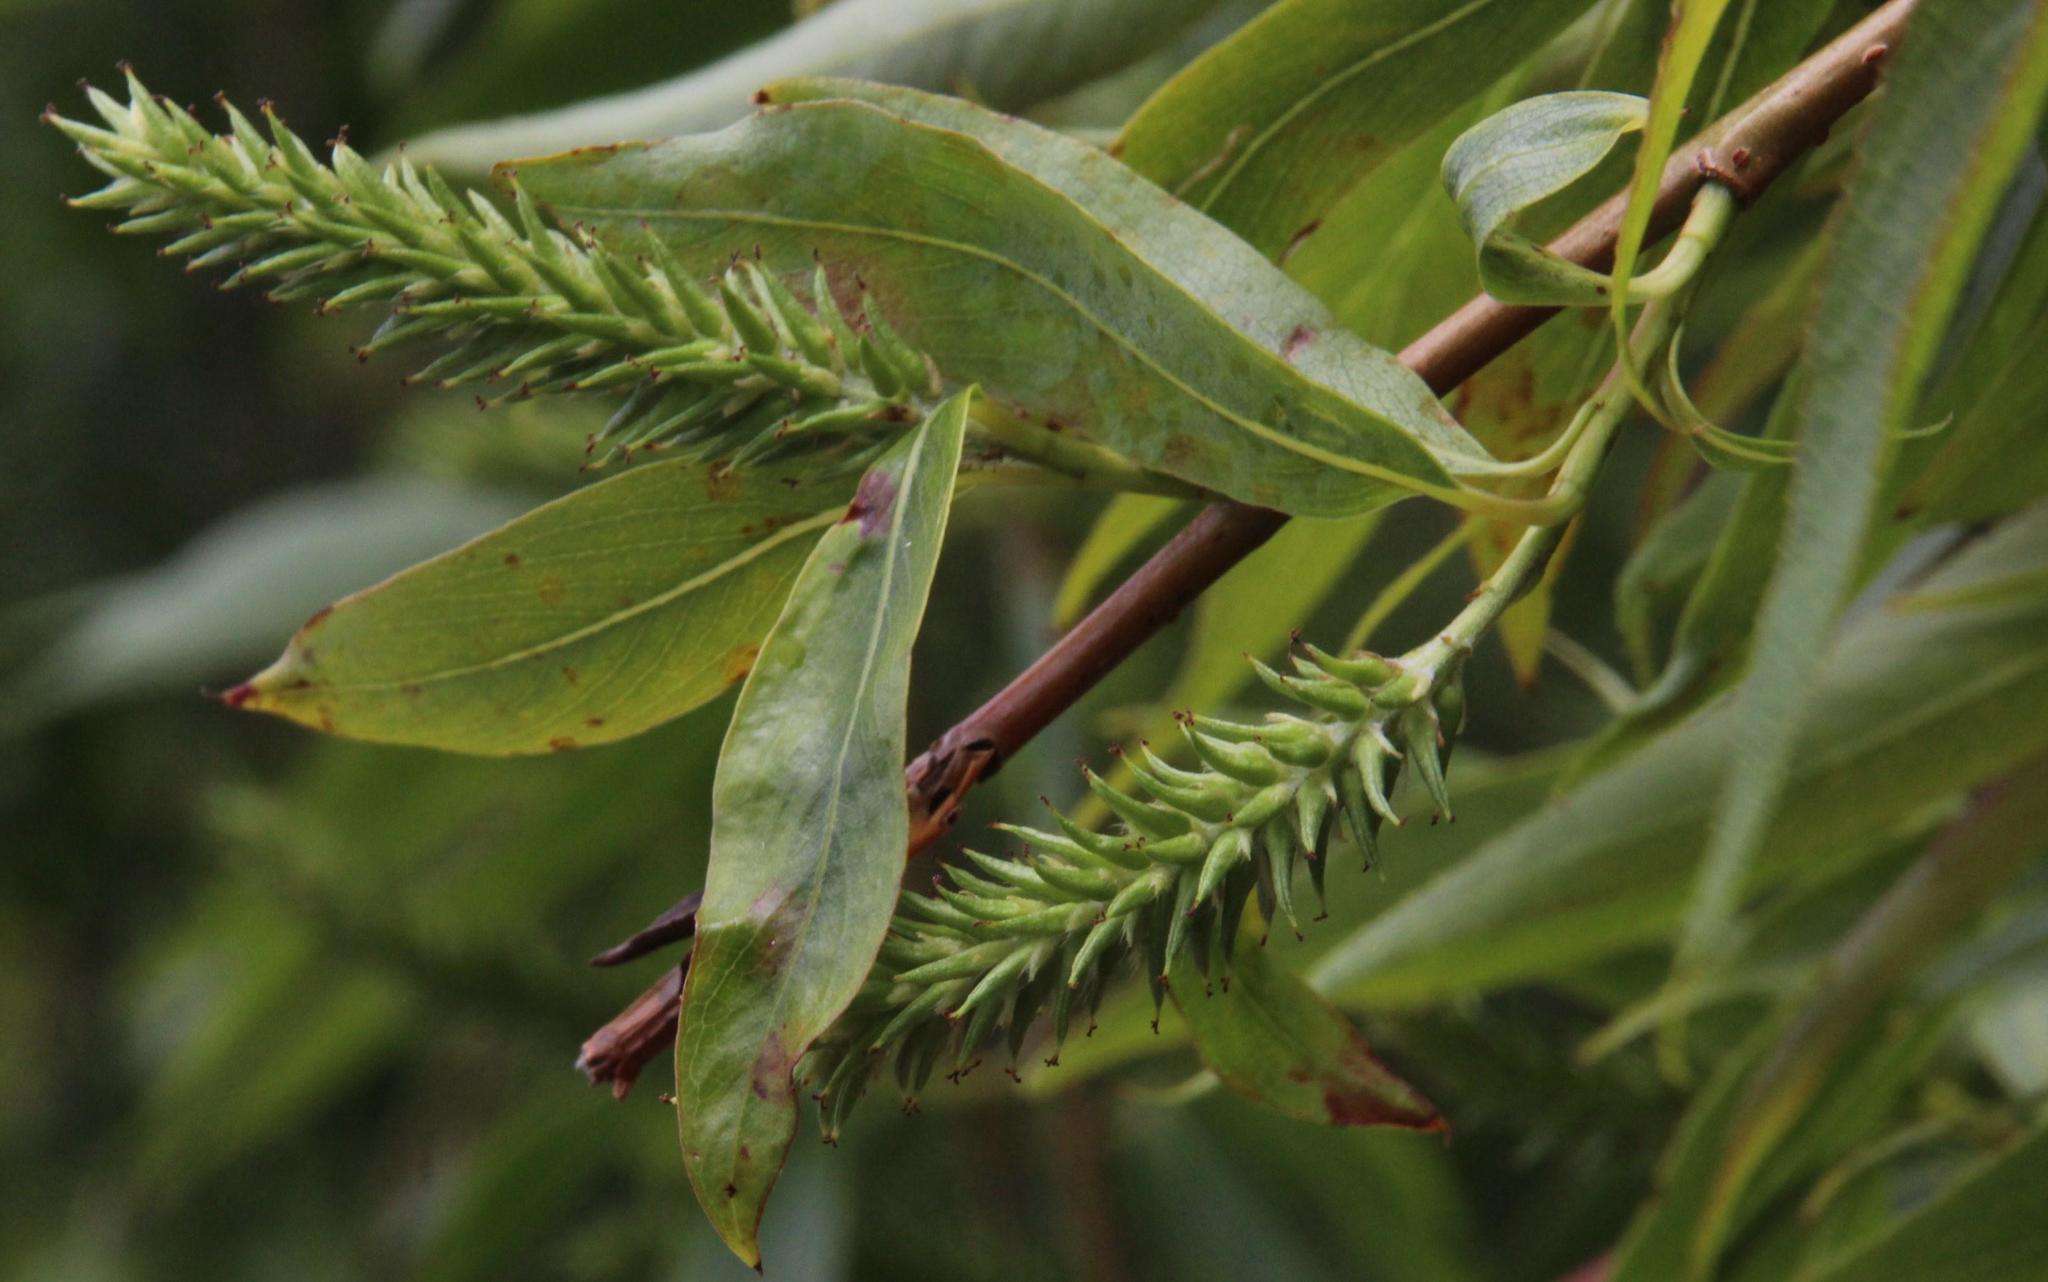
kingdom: Plantae
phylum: Tracheophyta
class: Magnoliopsida
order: Malpighiales
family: Salicaceae
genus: Salix
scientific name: Salix babylonica
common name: Weeping willow
